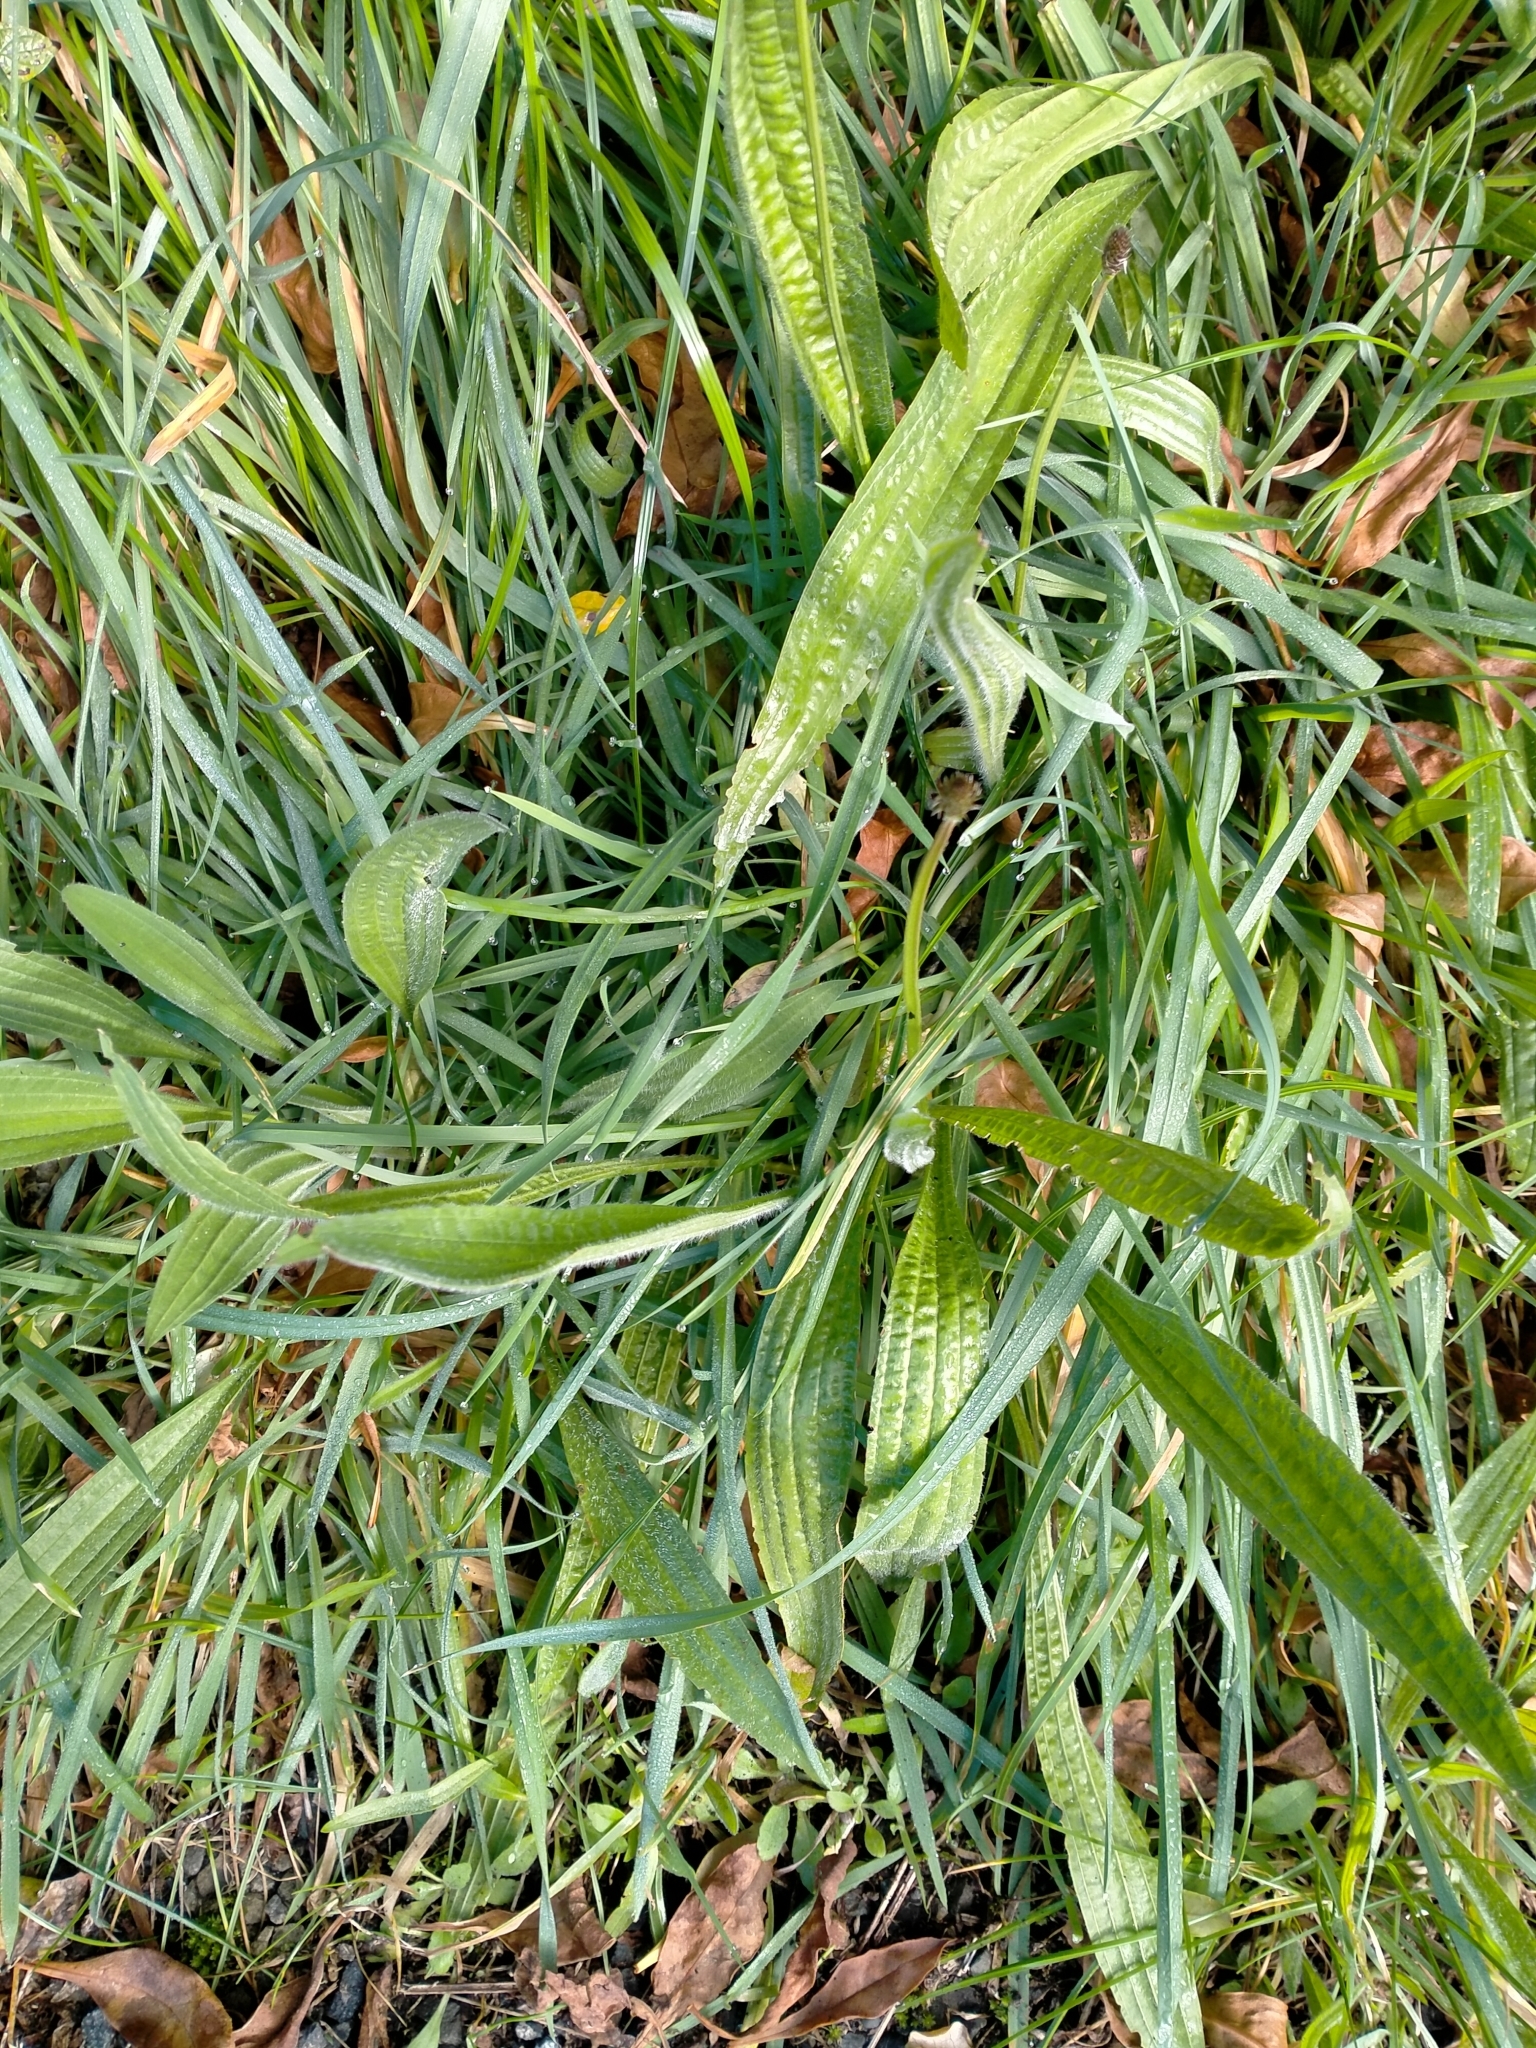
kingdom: Plantae
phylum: Tracheophyta
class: Magnoliopsida
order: Lamiales
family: Plantaginaceae
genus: Plantago
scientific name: Plantago lanceolata
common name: Ribwort plantain
